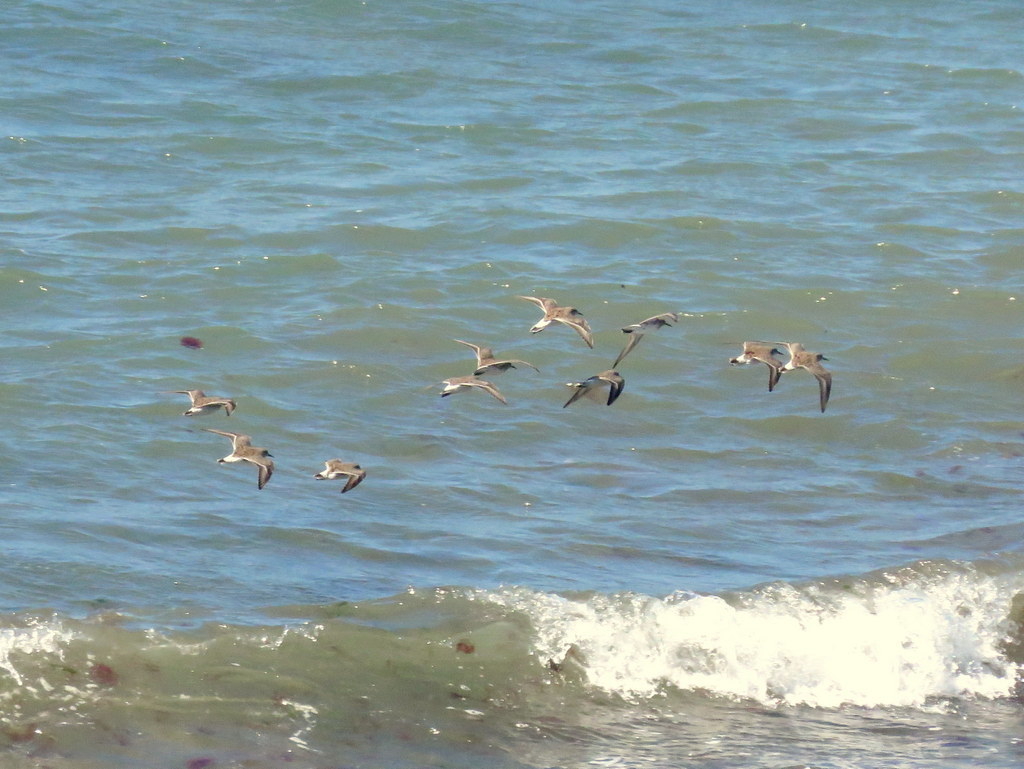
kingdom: Animalia
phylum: Chordata
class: Aves
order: Charadriiformes
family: Scolopacidae
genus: Calidris
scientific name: Calidris fuscicollis
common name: White-rumped sandpiper
